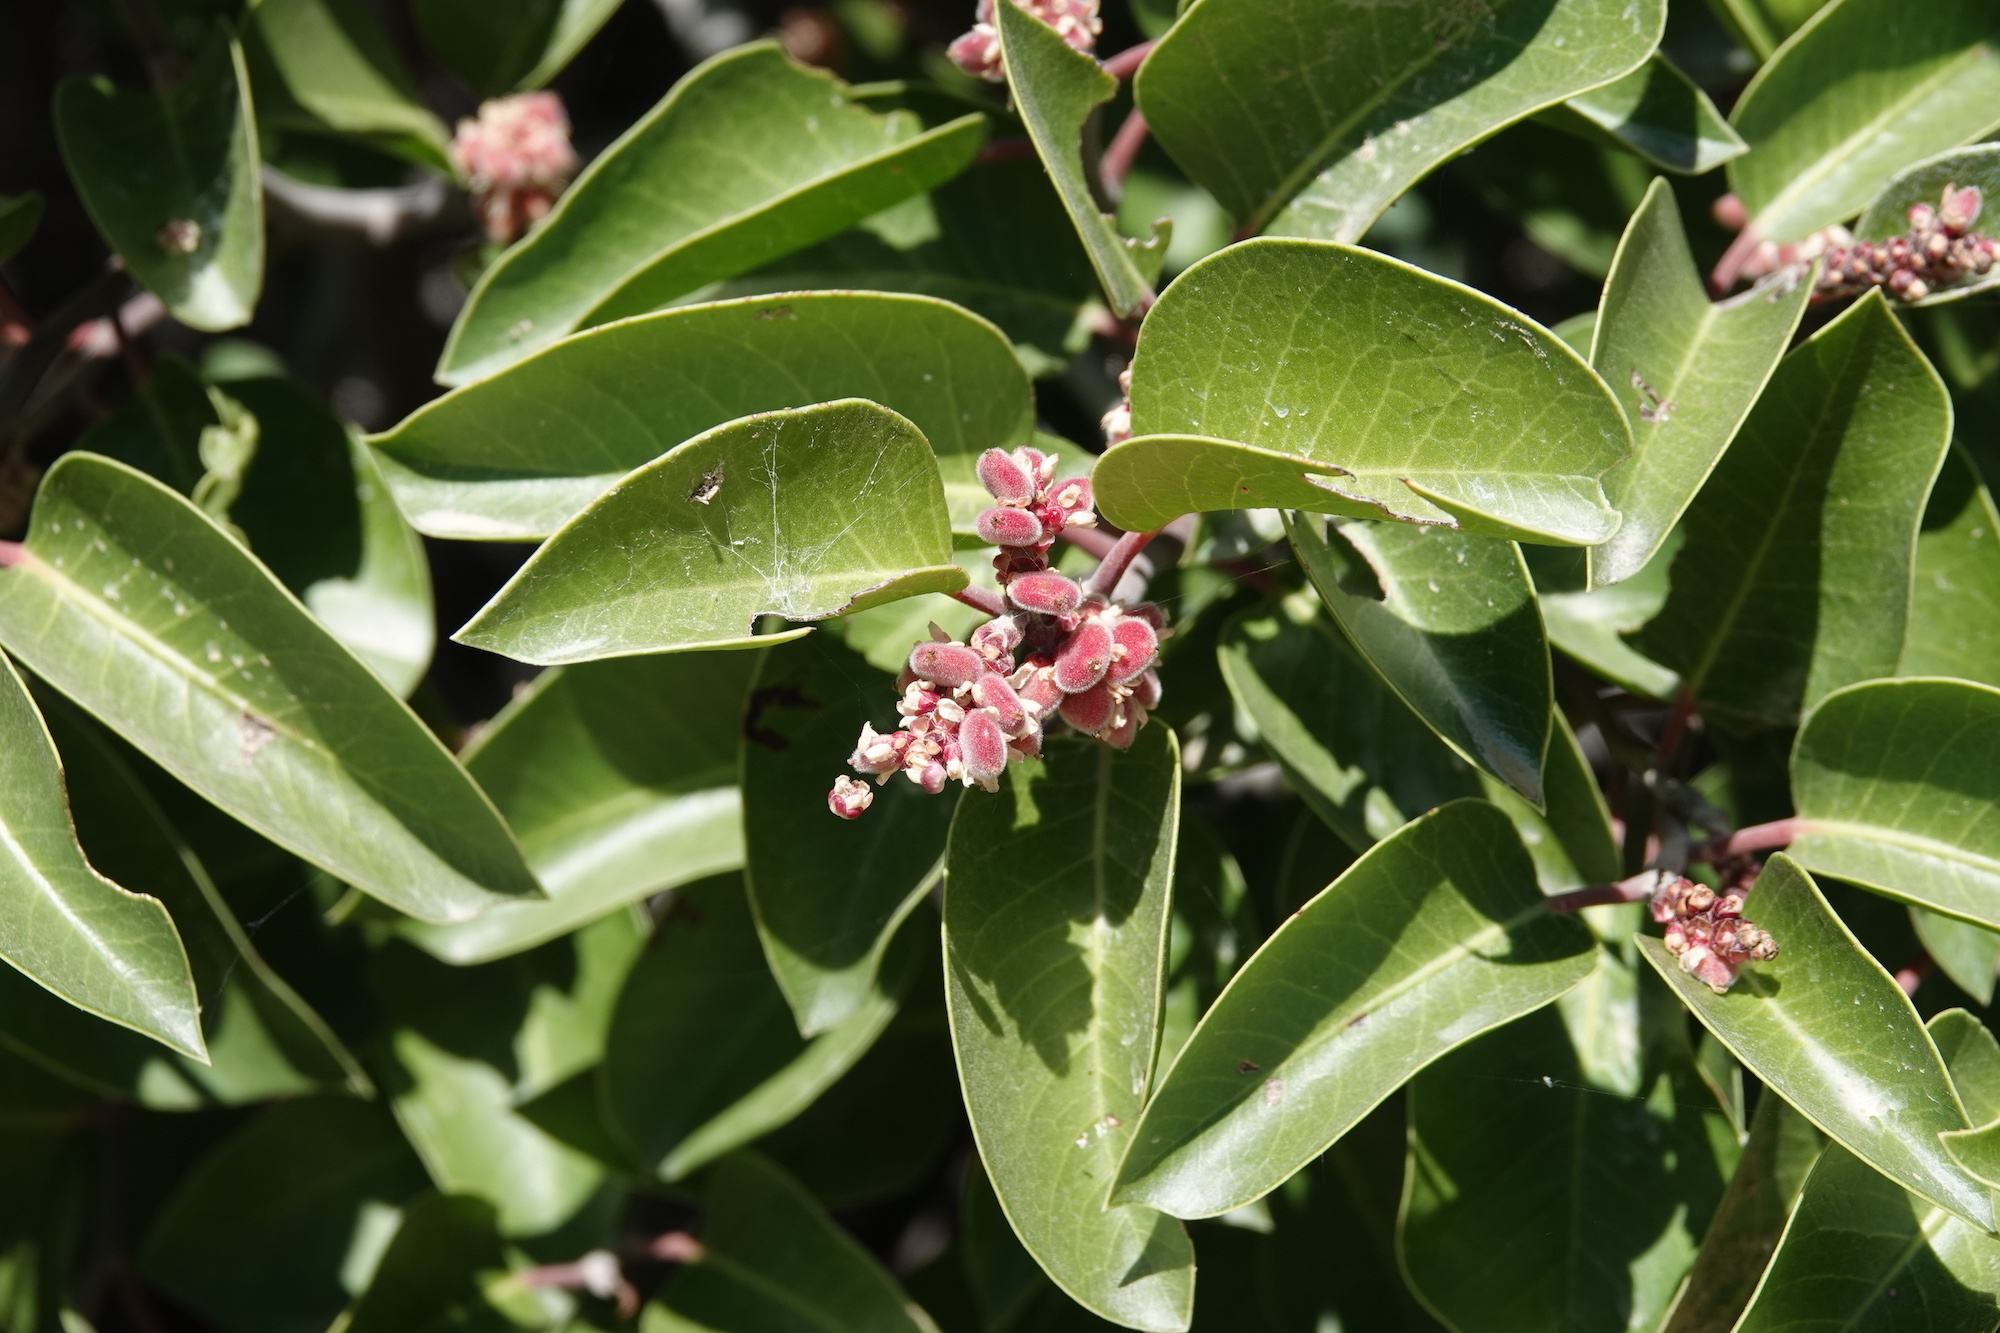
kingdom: Plantae
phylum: Tracheophyta
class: Magnoliopsida
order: Sapindales
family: Anacardiaceae
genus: Rhus
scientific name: Rhus ovata
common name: Sugar sumac
